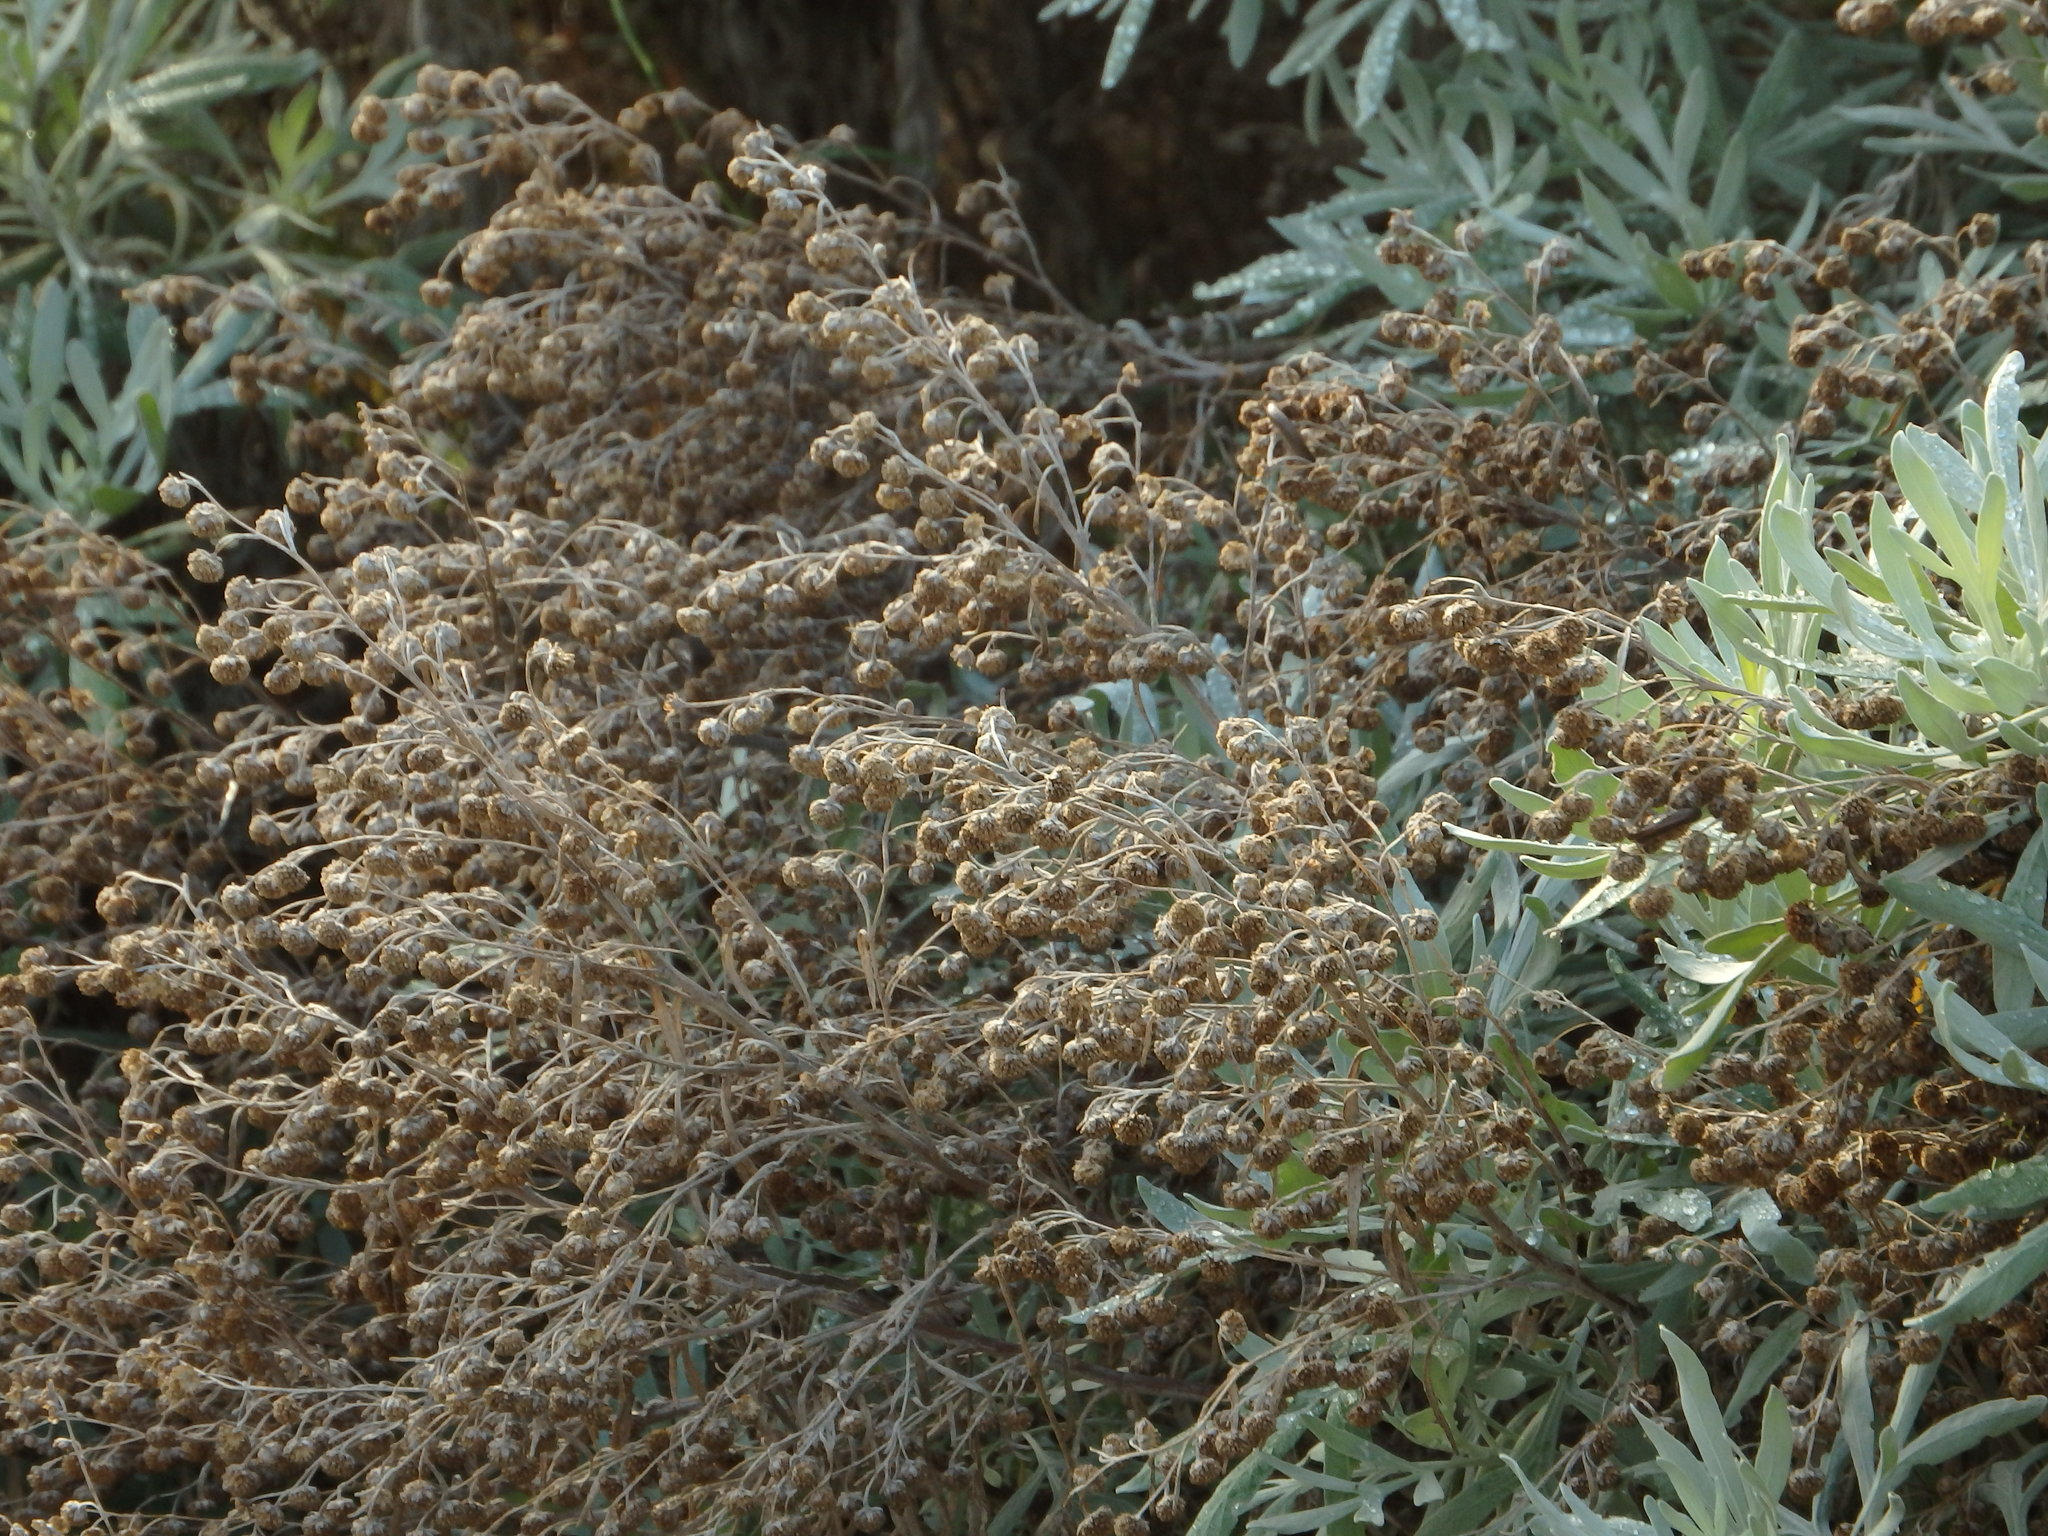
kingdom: Plantae
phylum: Tracheophyta
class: Magnoliopsida
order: Asterales
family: Asteraceae
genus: Artemisia
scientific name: Artemisia argentea
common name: Madeira wormwood
